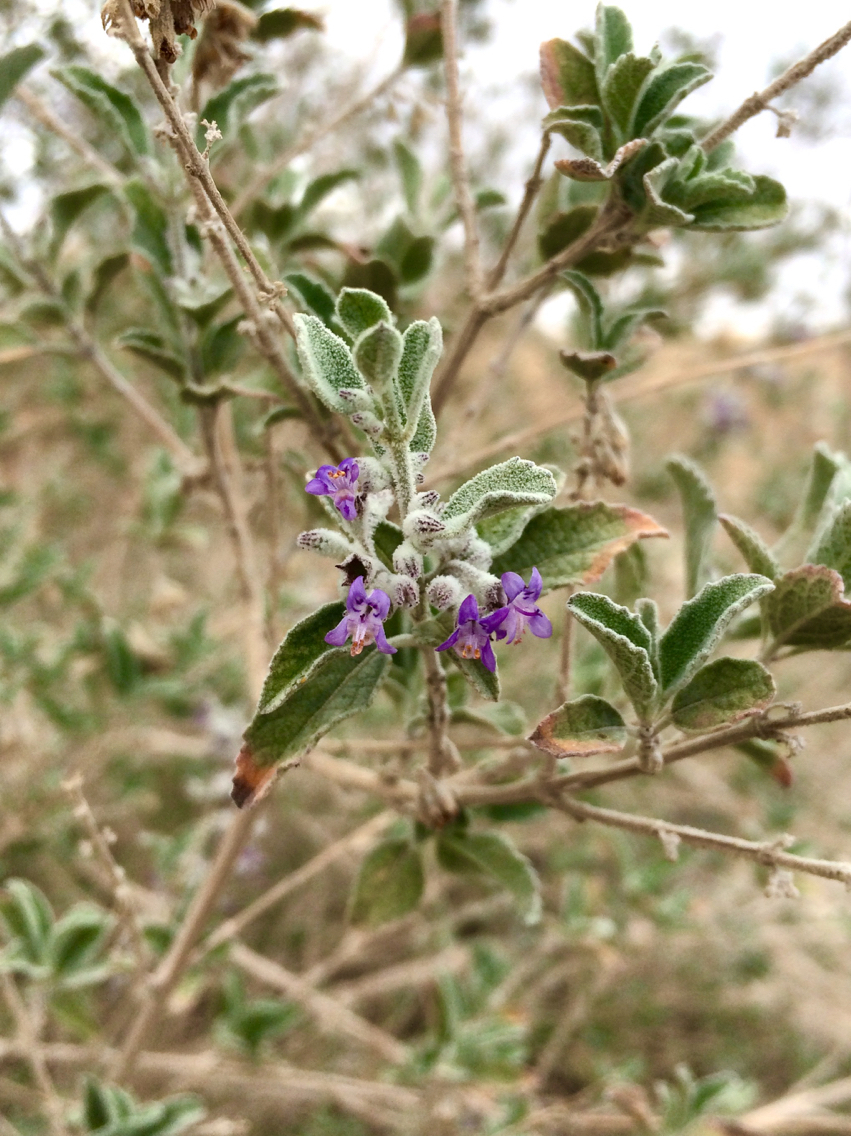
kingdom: Plantae
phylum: Tracheophyta
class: Magnoliopsida
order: Lamiales
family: Lamiaceae
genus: Condea
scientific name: Condea emoryi
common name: Chia
